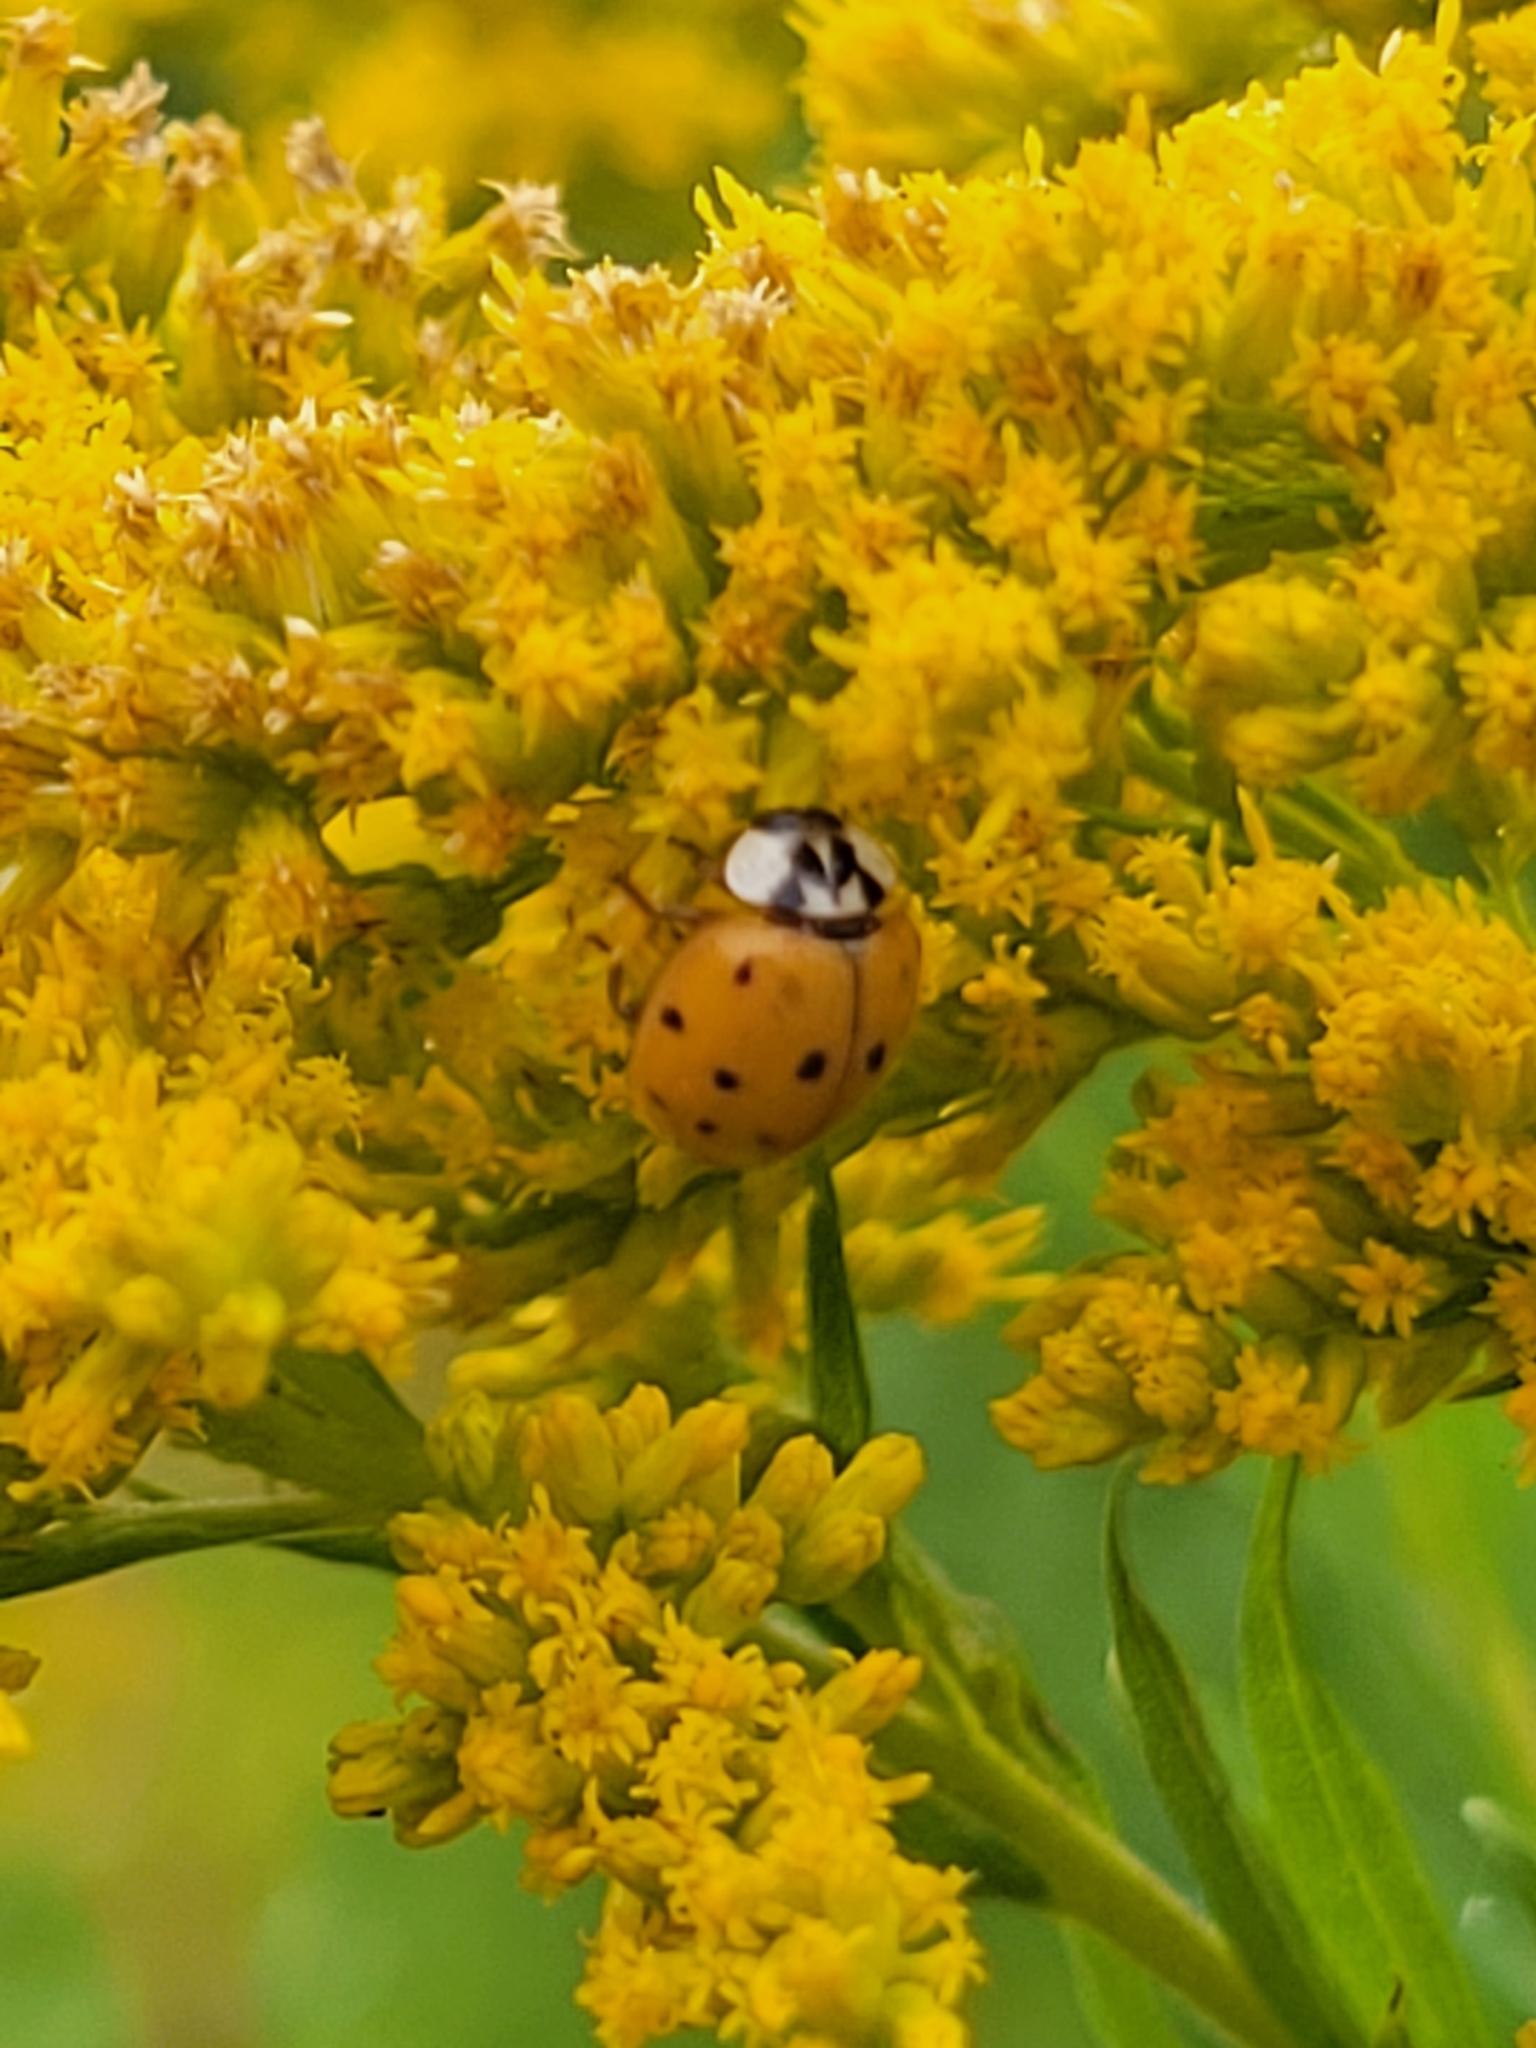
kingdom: Animalia
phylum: Arthropoda
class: Insecta
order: Coleoptera
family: Coccinellidae
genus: Harmonia
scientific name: Harmonia axyridis
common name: Harlequin ladybird
